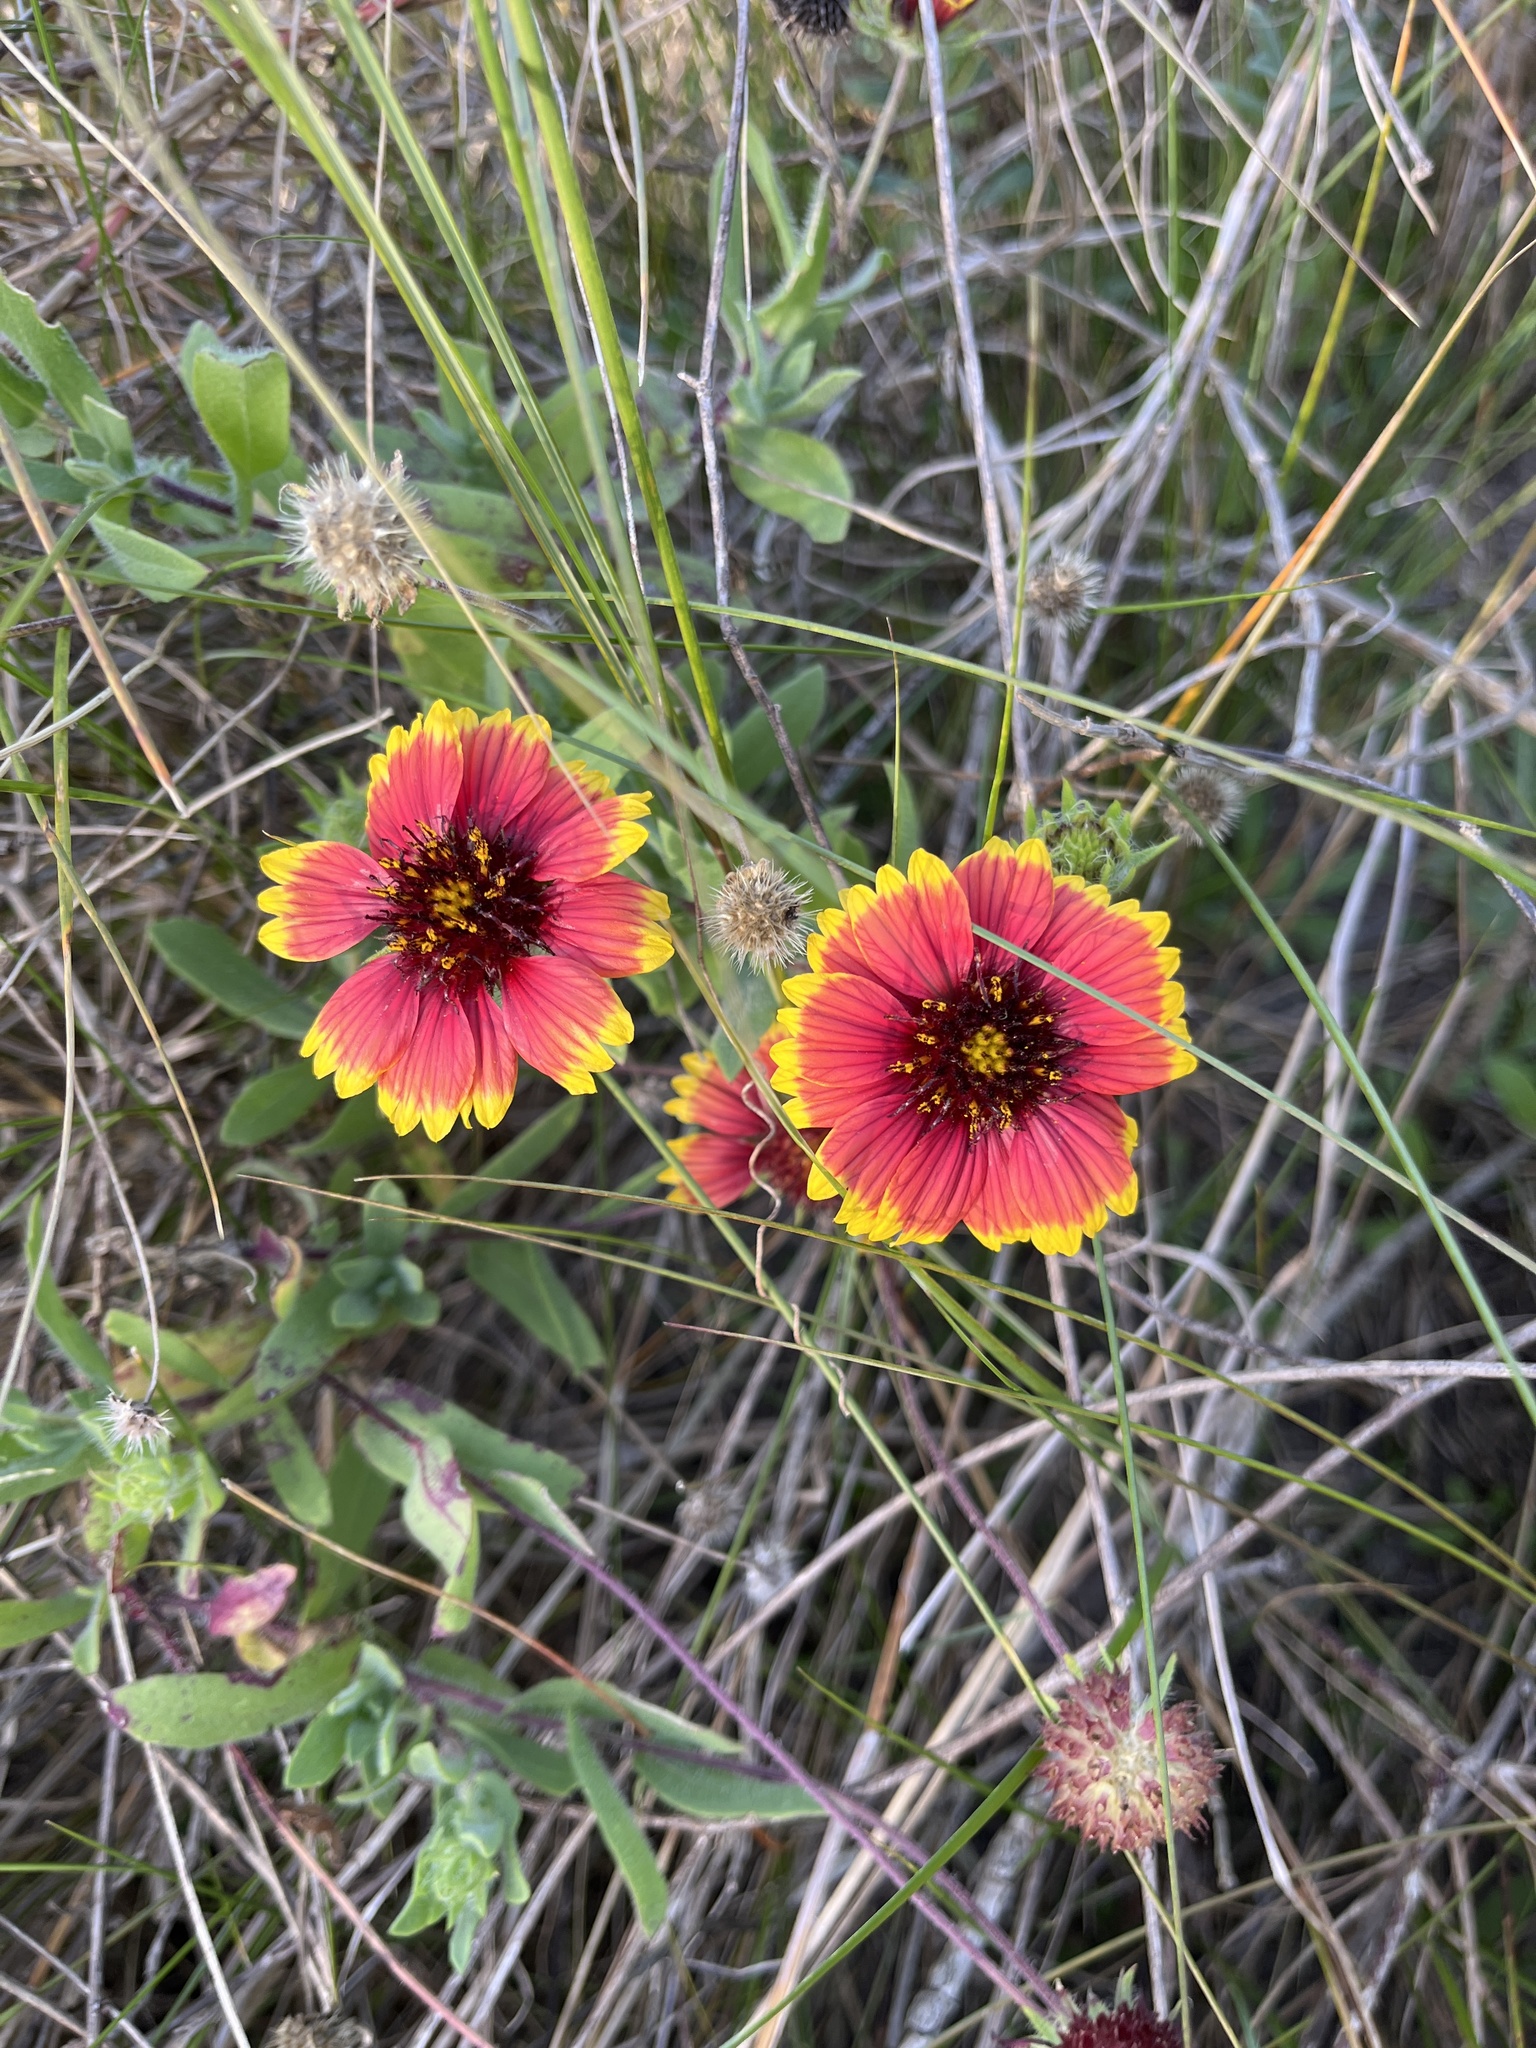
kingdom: Plantae
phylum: Tracheophyta
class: Magnoliopsida
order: Asterales
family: Asteraceae
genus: Gaillardia
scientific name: Gaillardia pulchella
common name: Firewheel
